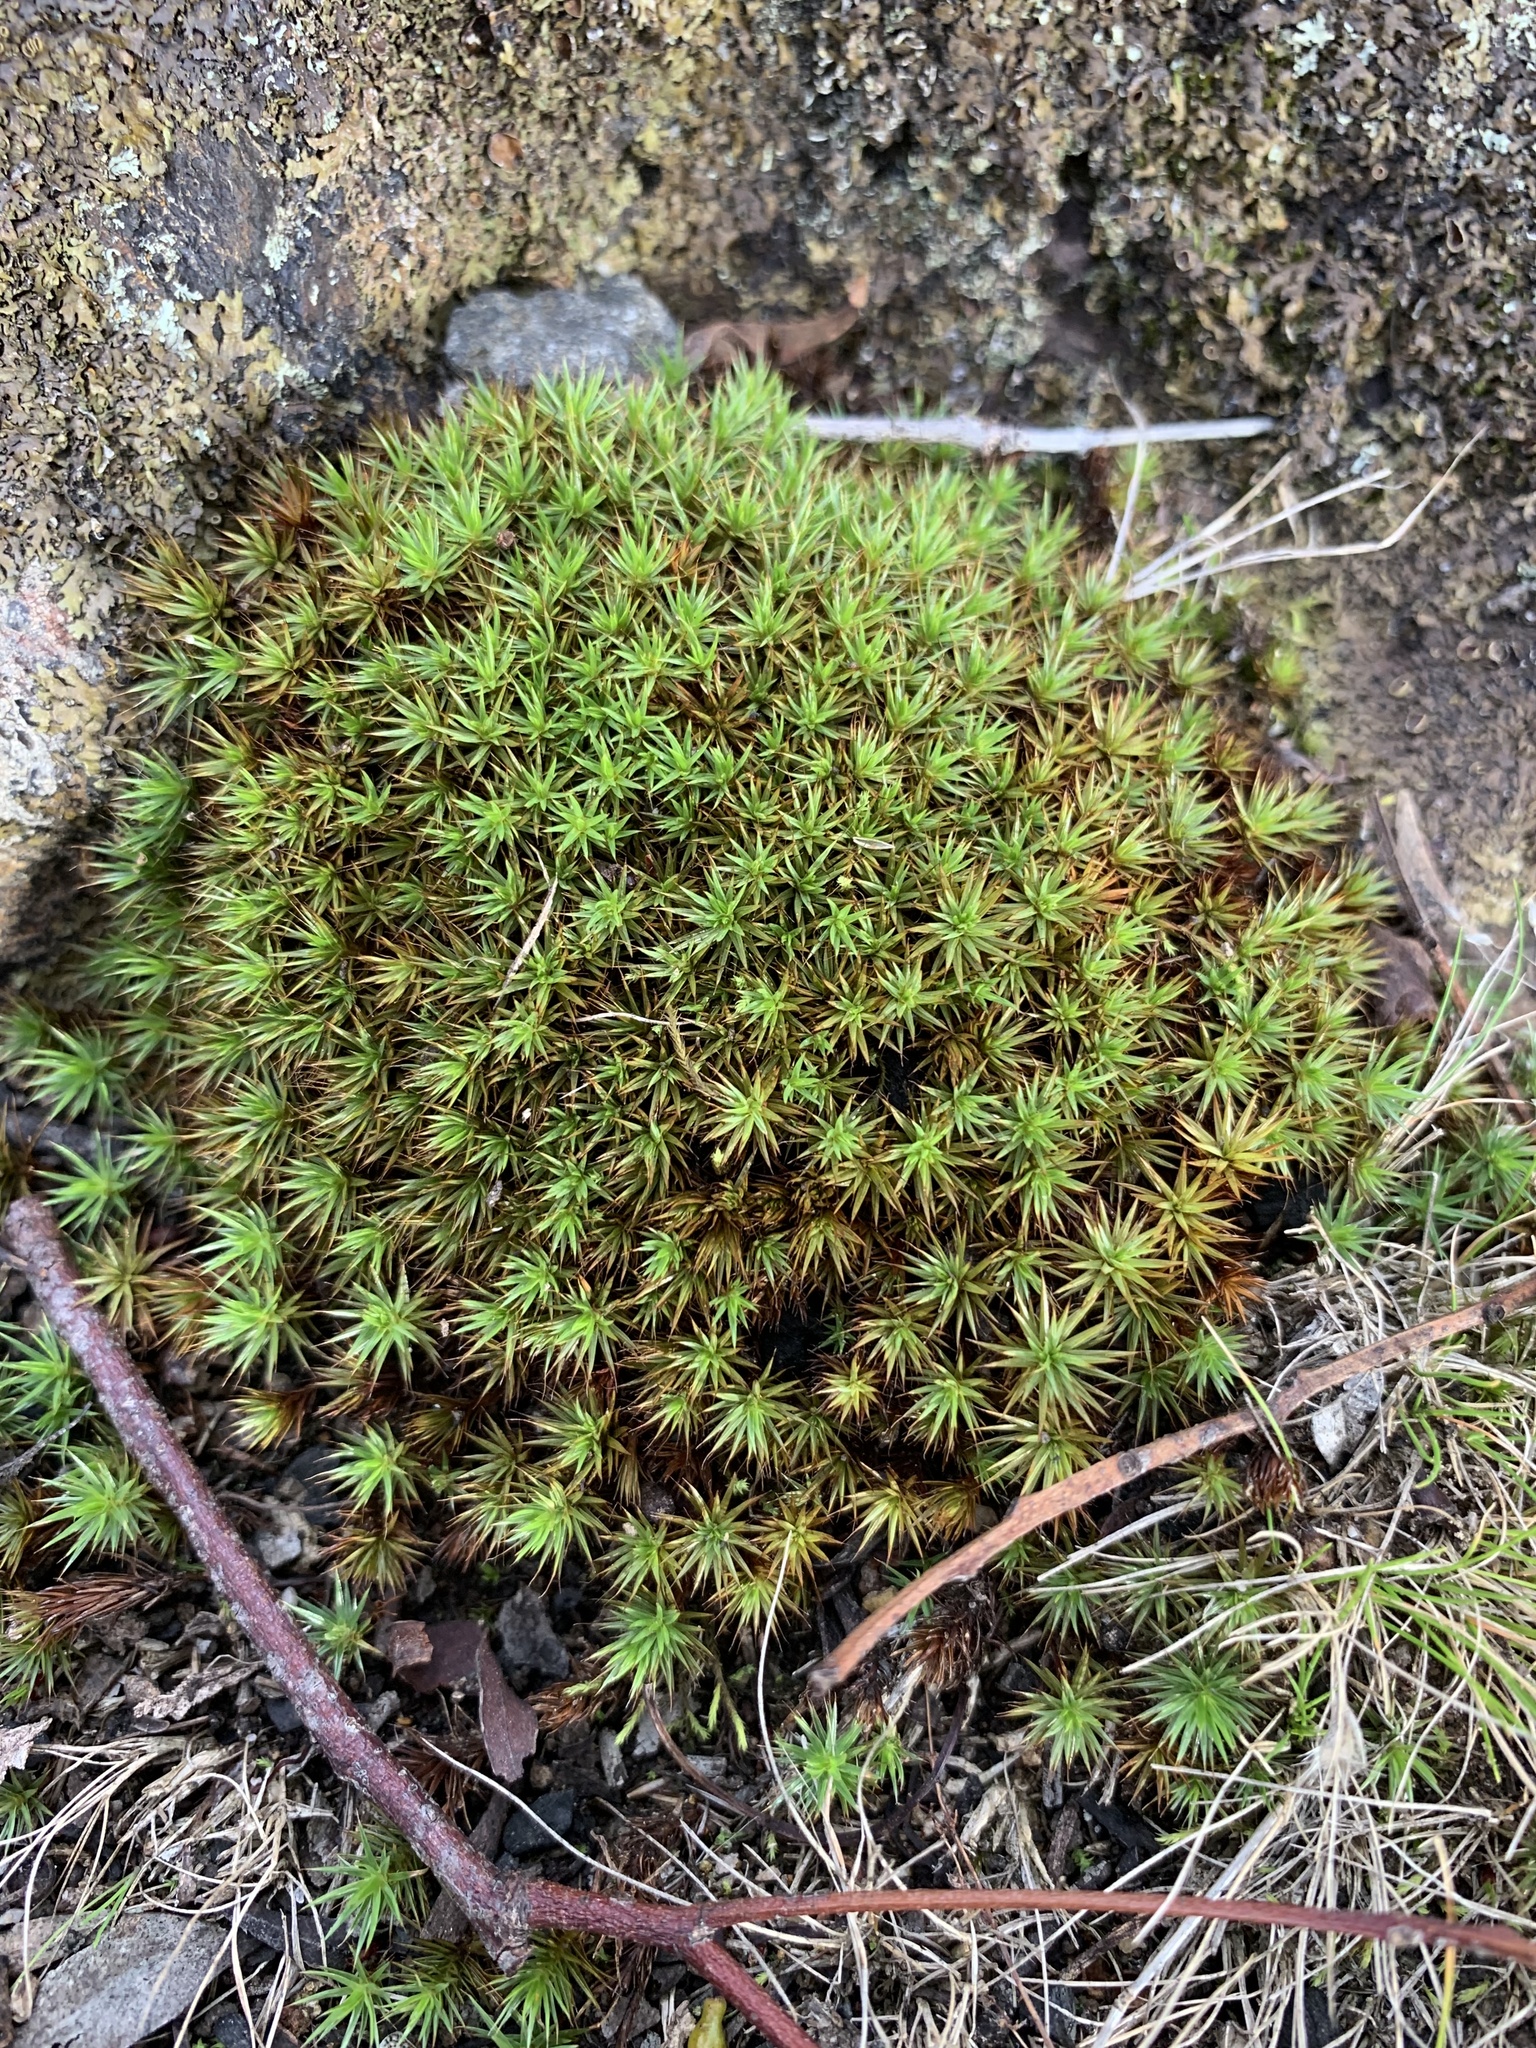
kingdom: Plantae
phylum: Bryophyta
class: Polytrichopsida
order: Polytrichales
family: Polytrichaceae
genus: Polytrichum
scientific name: Polytrichum juniperinum
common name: Juniper haircap moss
